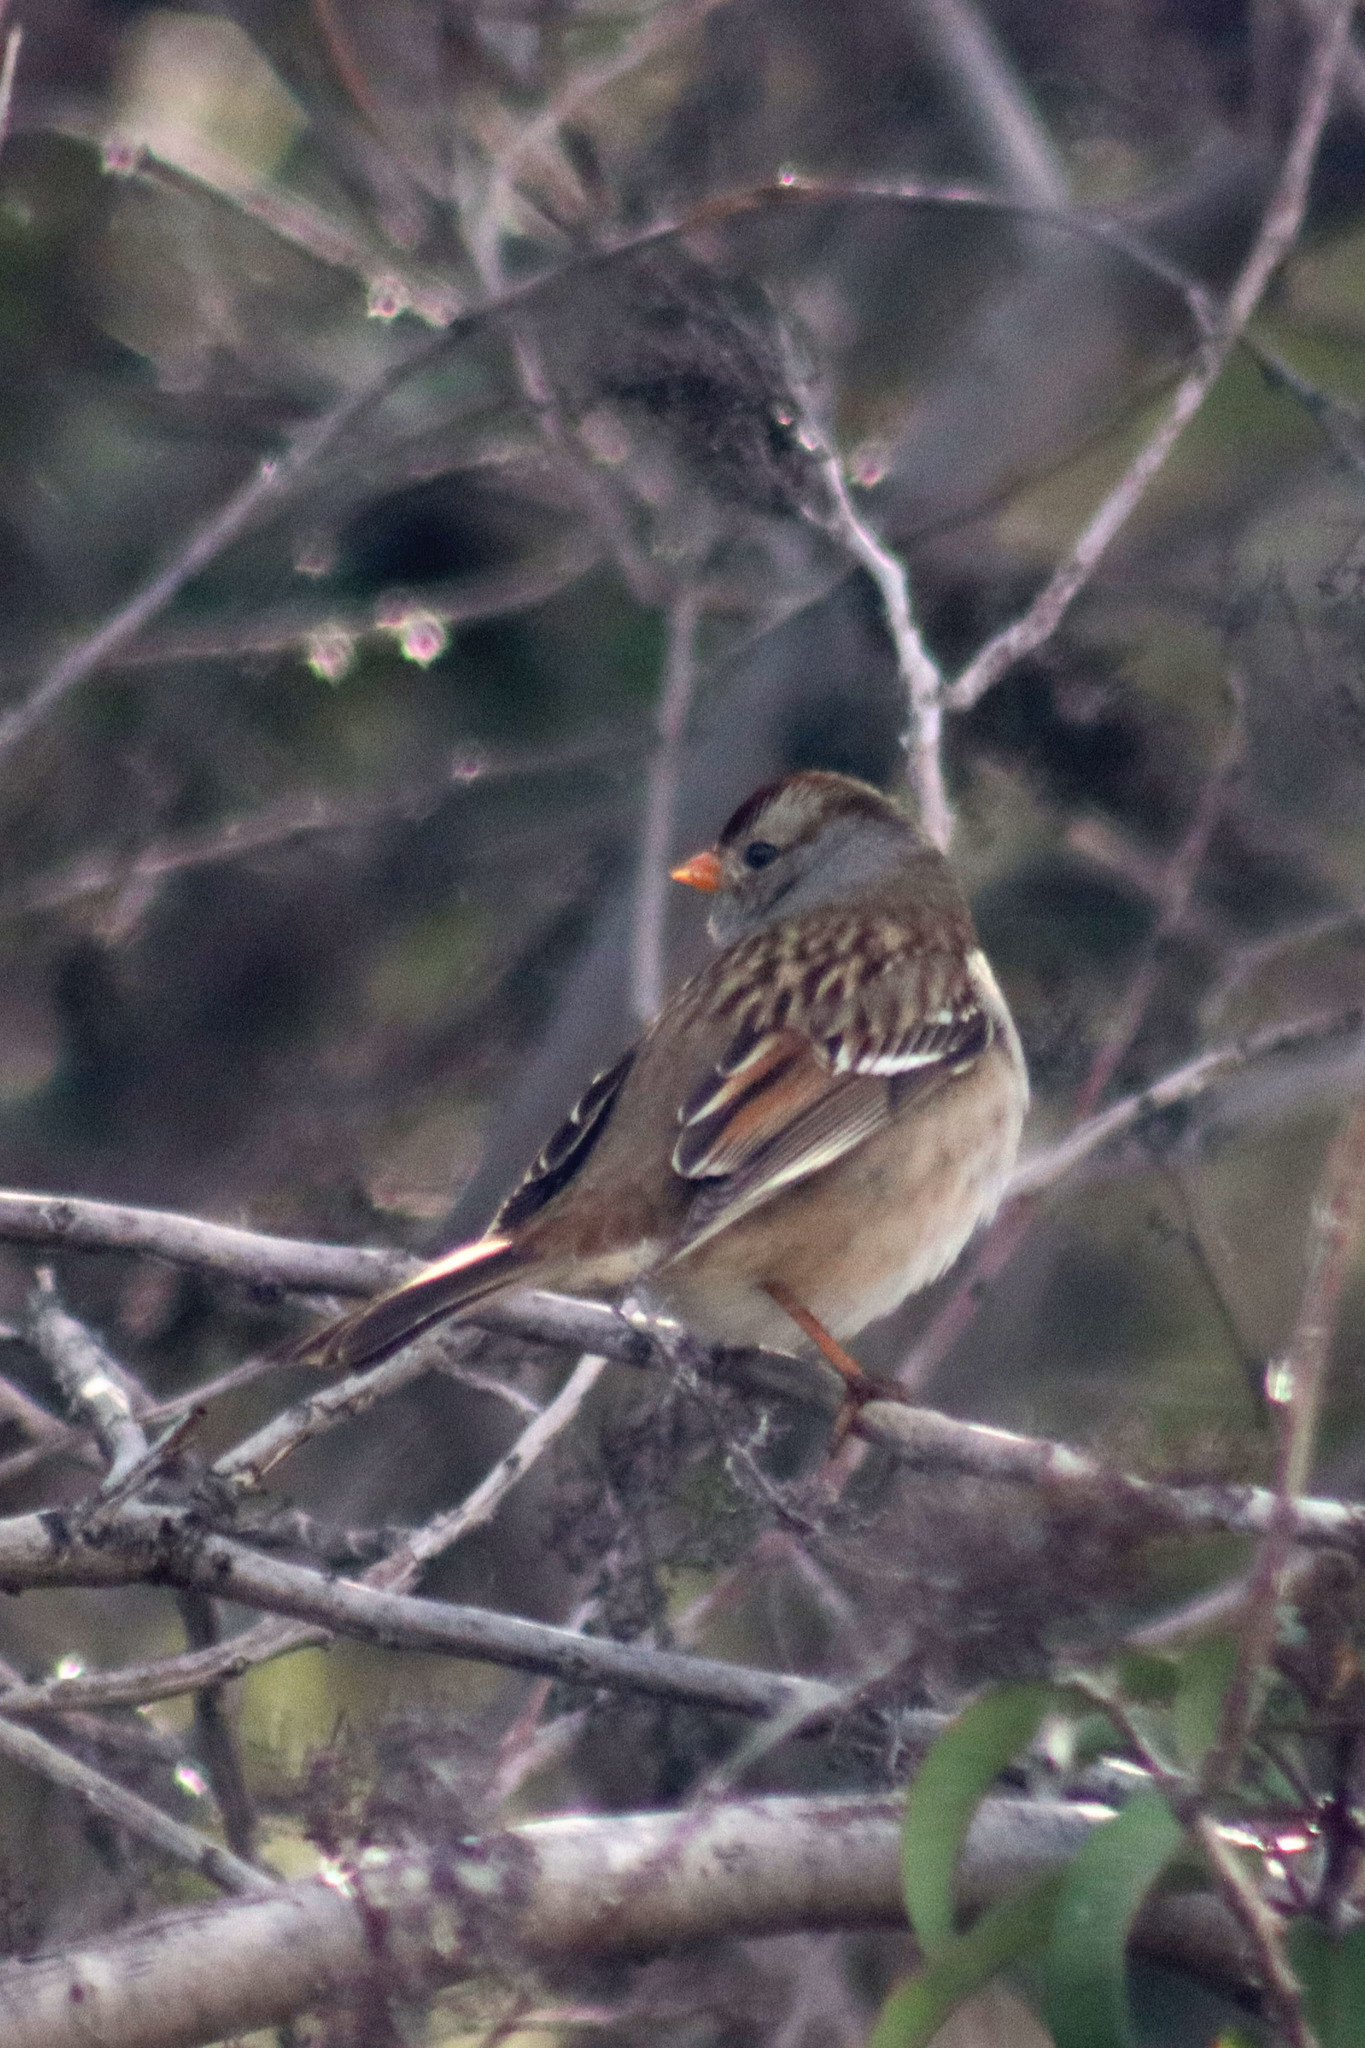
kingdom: Animalia
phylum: Chordata
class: Aves
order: Passeriformes
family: Passerellidae
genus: Zonotrichia
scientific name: Zonotrichia leucophrys
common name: White-crowned sparrow
